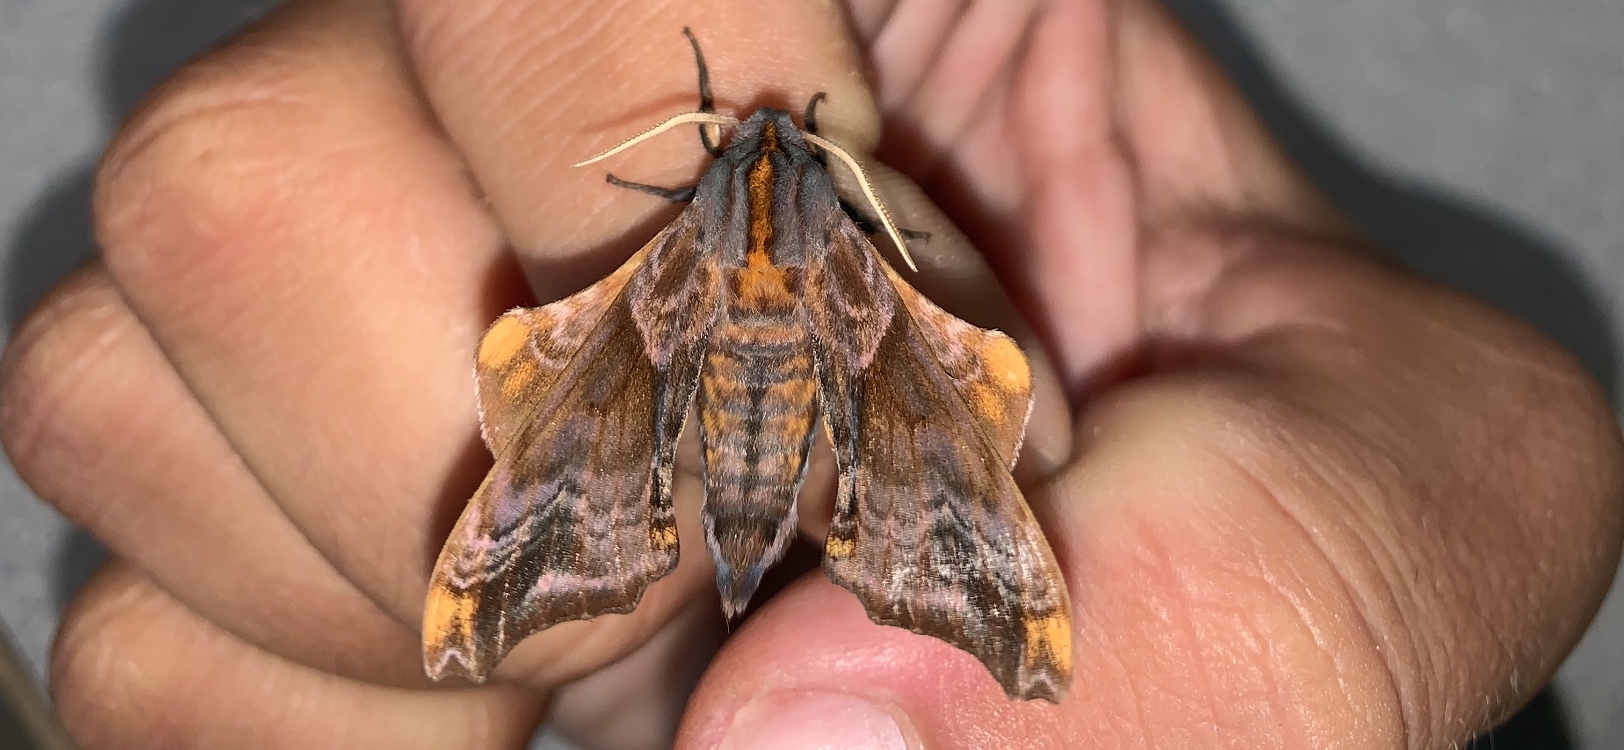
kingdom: Animalia
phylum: Arthropoda
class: Insecta
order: Lepidoptera
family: Sphingidae
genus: Paonias
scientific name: Paonias myops
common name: Small-eyed sphinx
